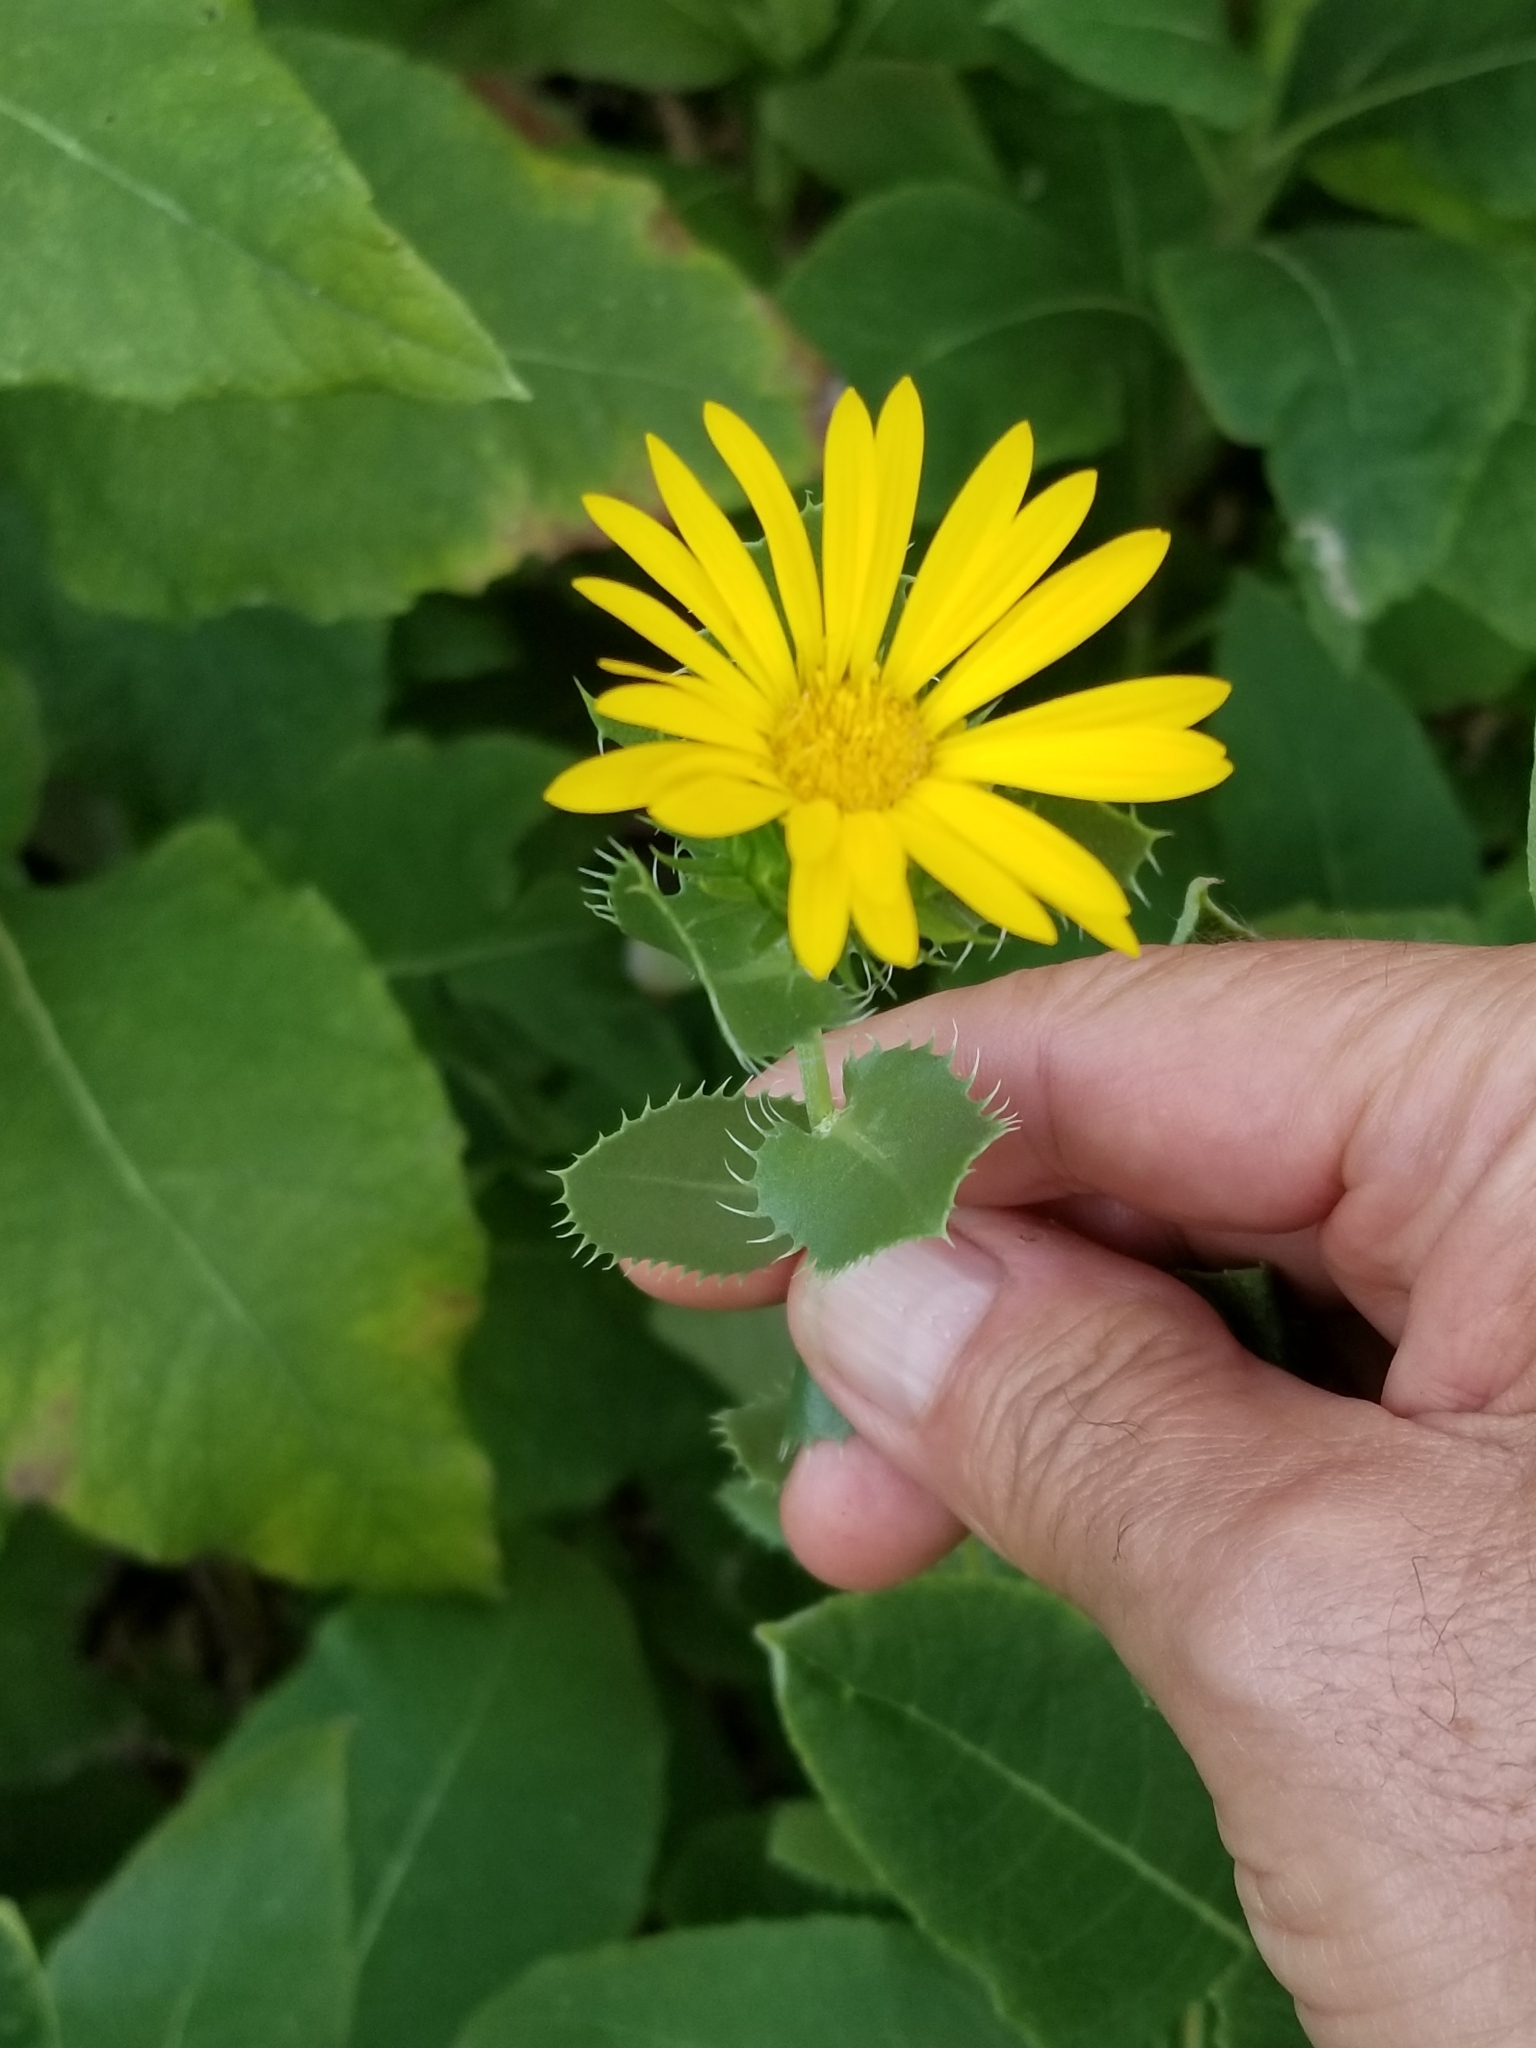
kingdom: Plantae
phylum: Tracheophyta
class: Magnoliopsida
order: Asterales
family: Asteraceae
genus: Grindelia
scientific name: Grindelia ciliata
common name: Goldenweed
